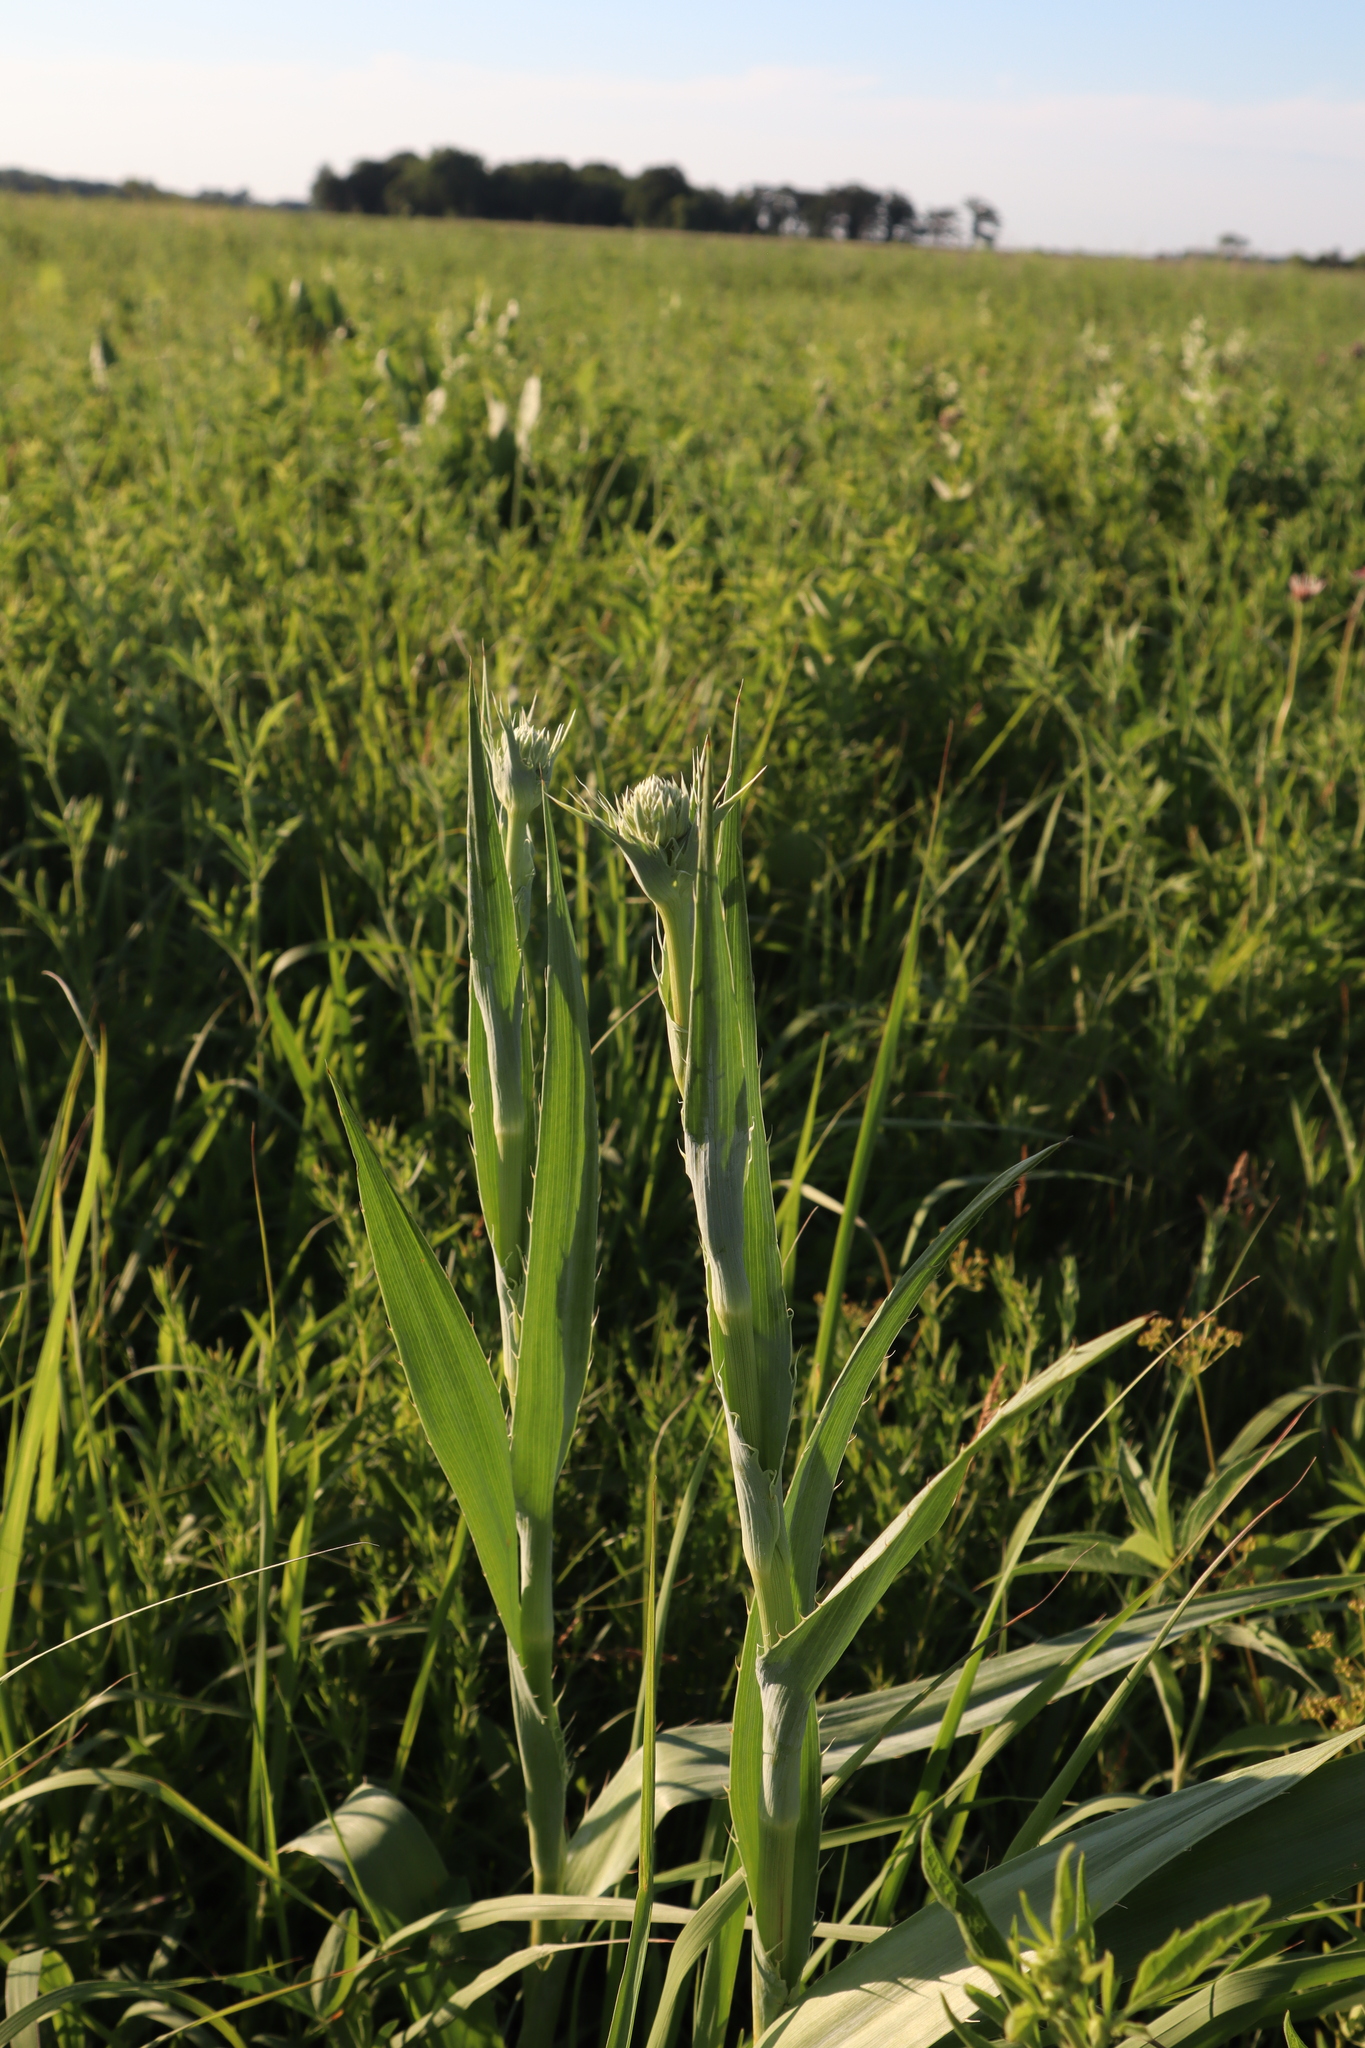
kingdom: Plantae
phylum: Tracheophyta
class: Magnoliopsida
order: Apiales
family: Apiaceae
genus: Eryngium
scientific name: Eryngium yuccifolium
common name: Button eryngo
